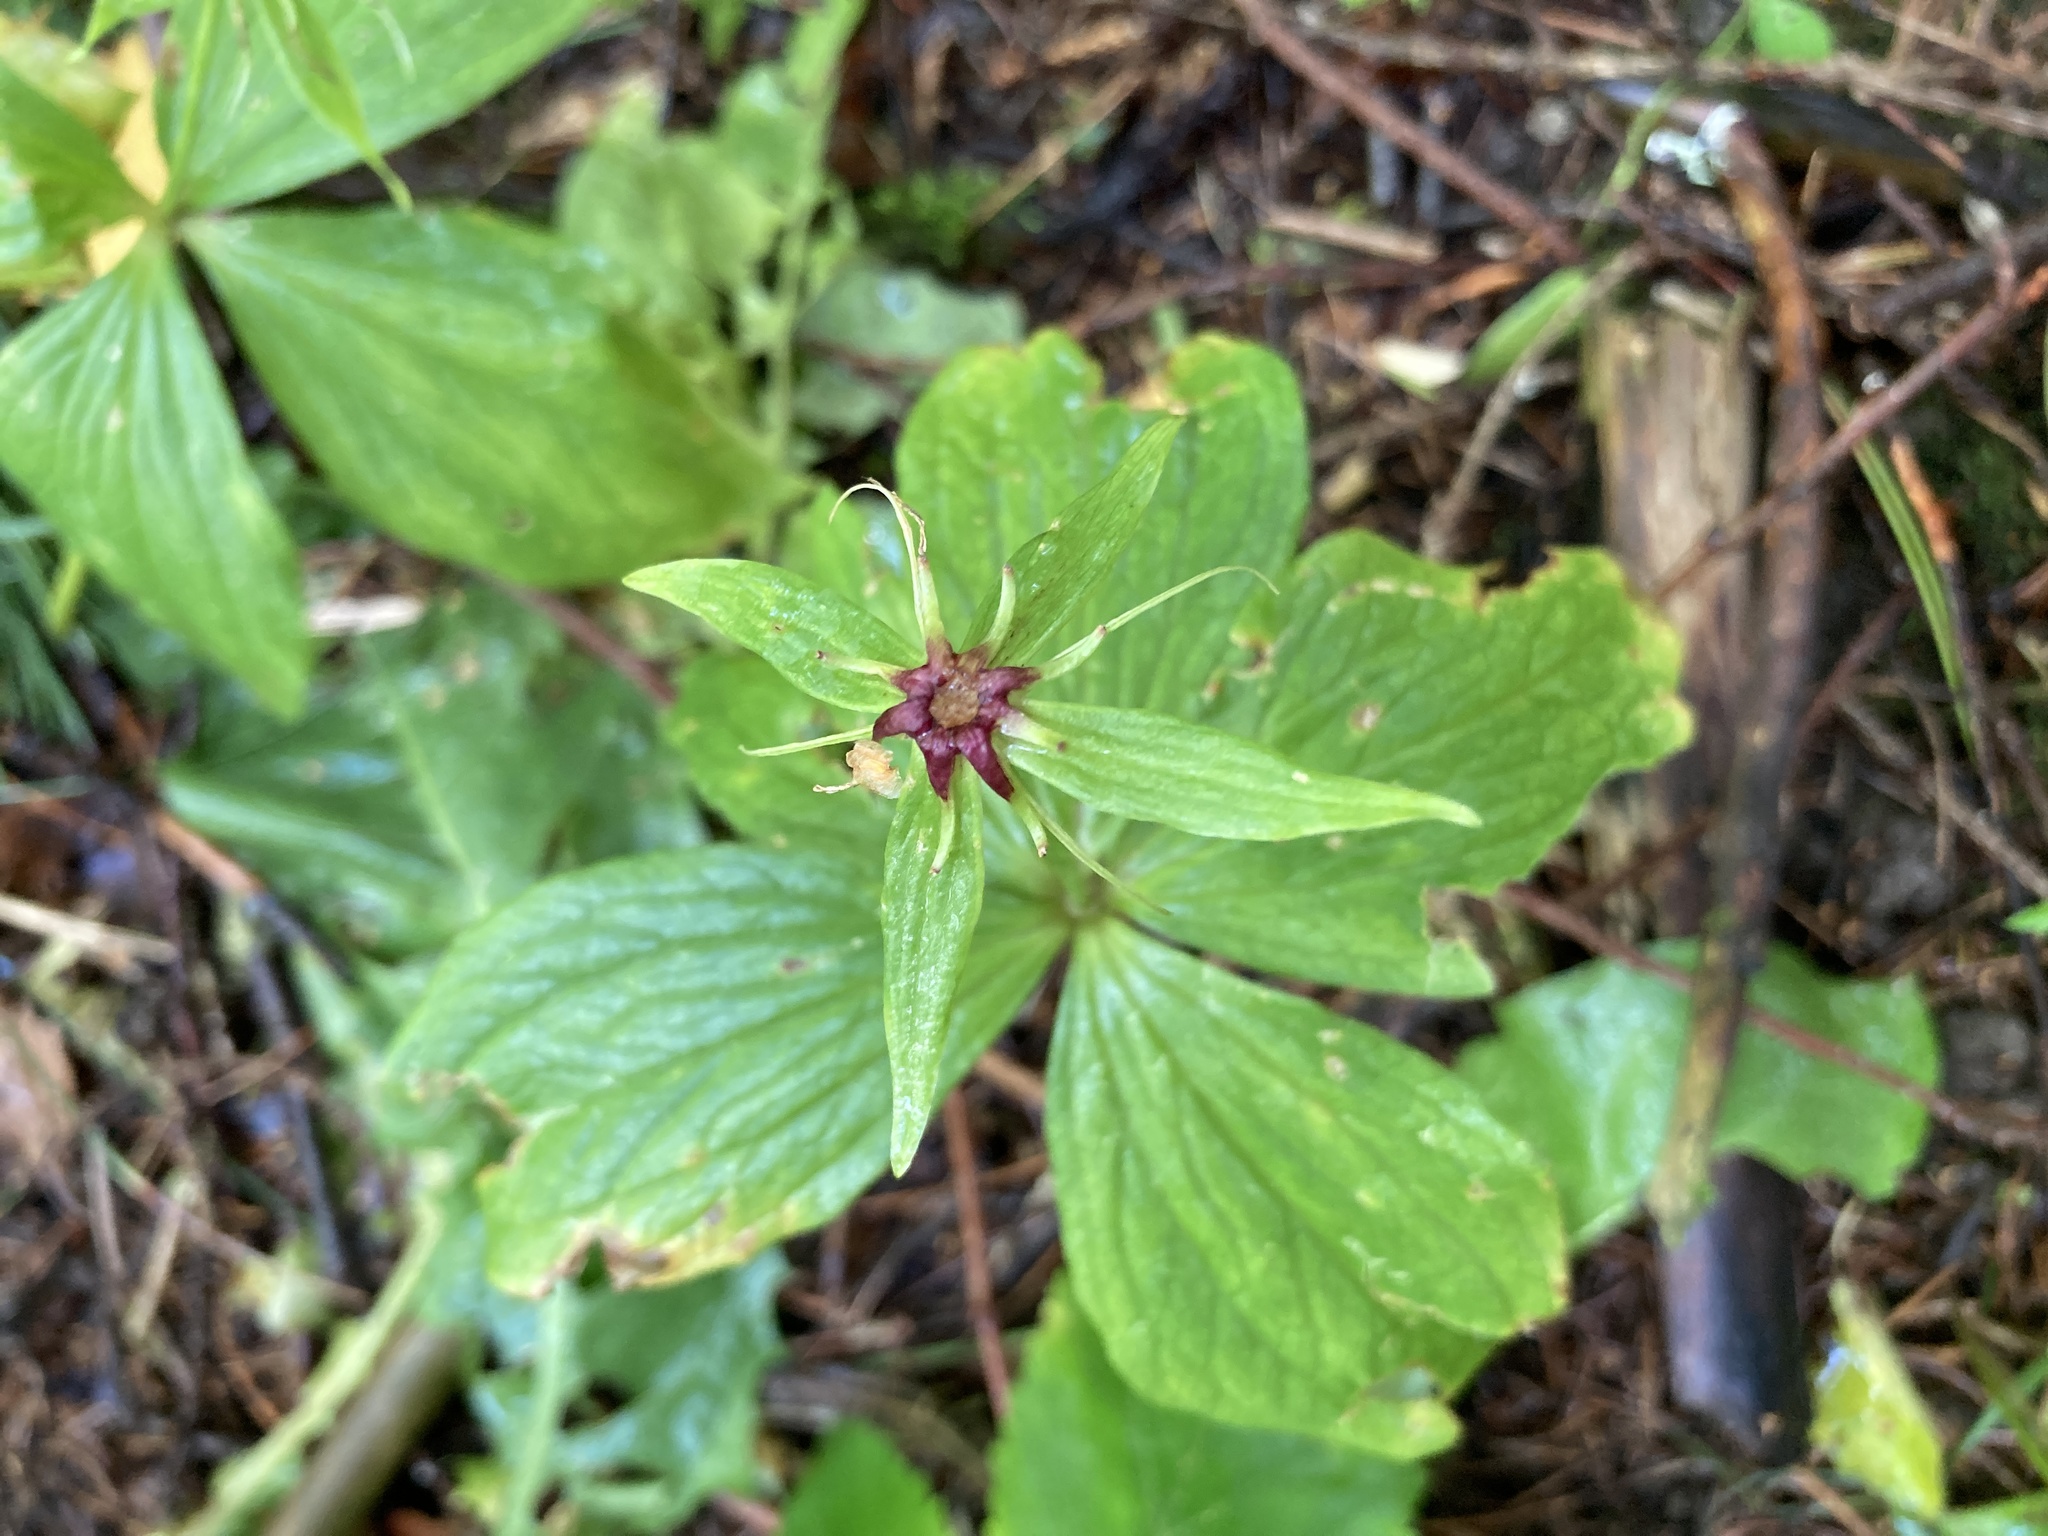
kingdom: Plantae
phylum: Tracheophyta
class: Liliopsida
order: Liliales
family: Melanthiaceae
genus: Paris
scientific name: Paris quadrifolia
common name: Herb-paris
